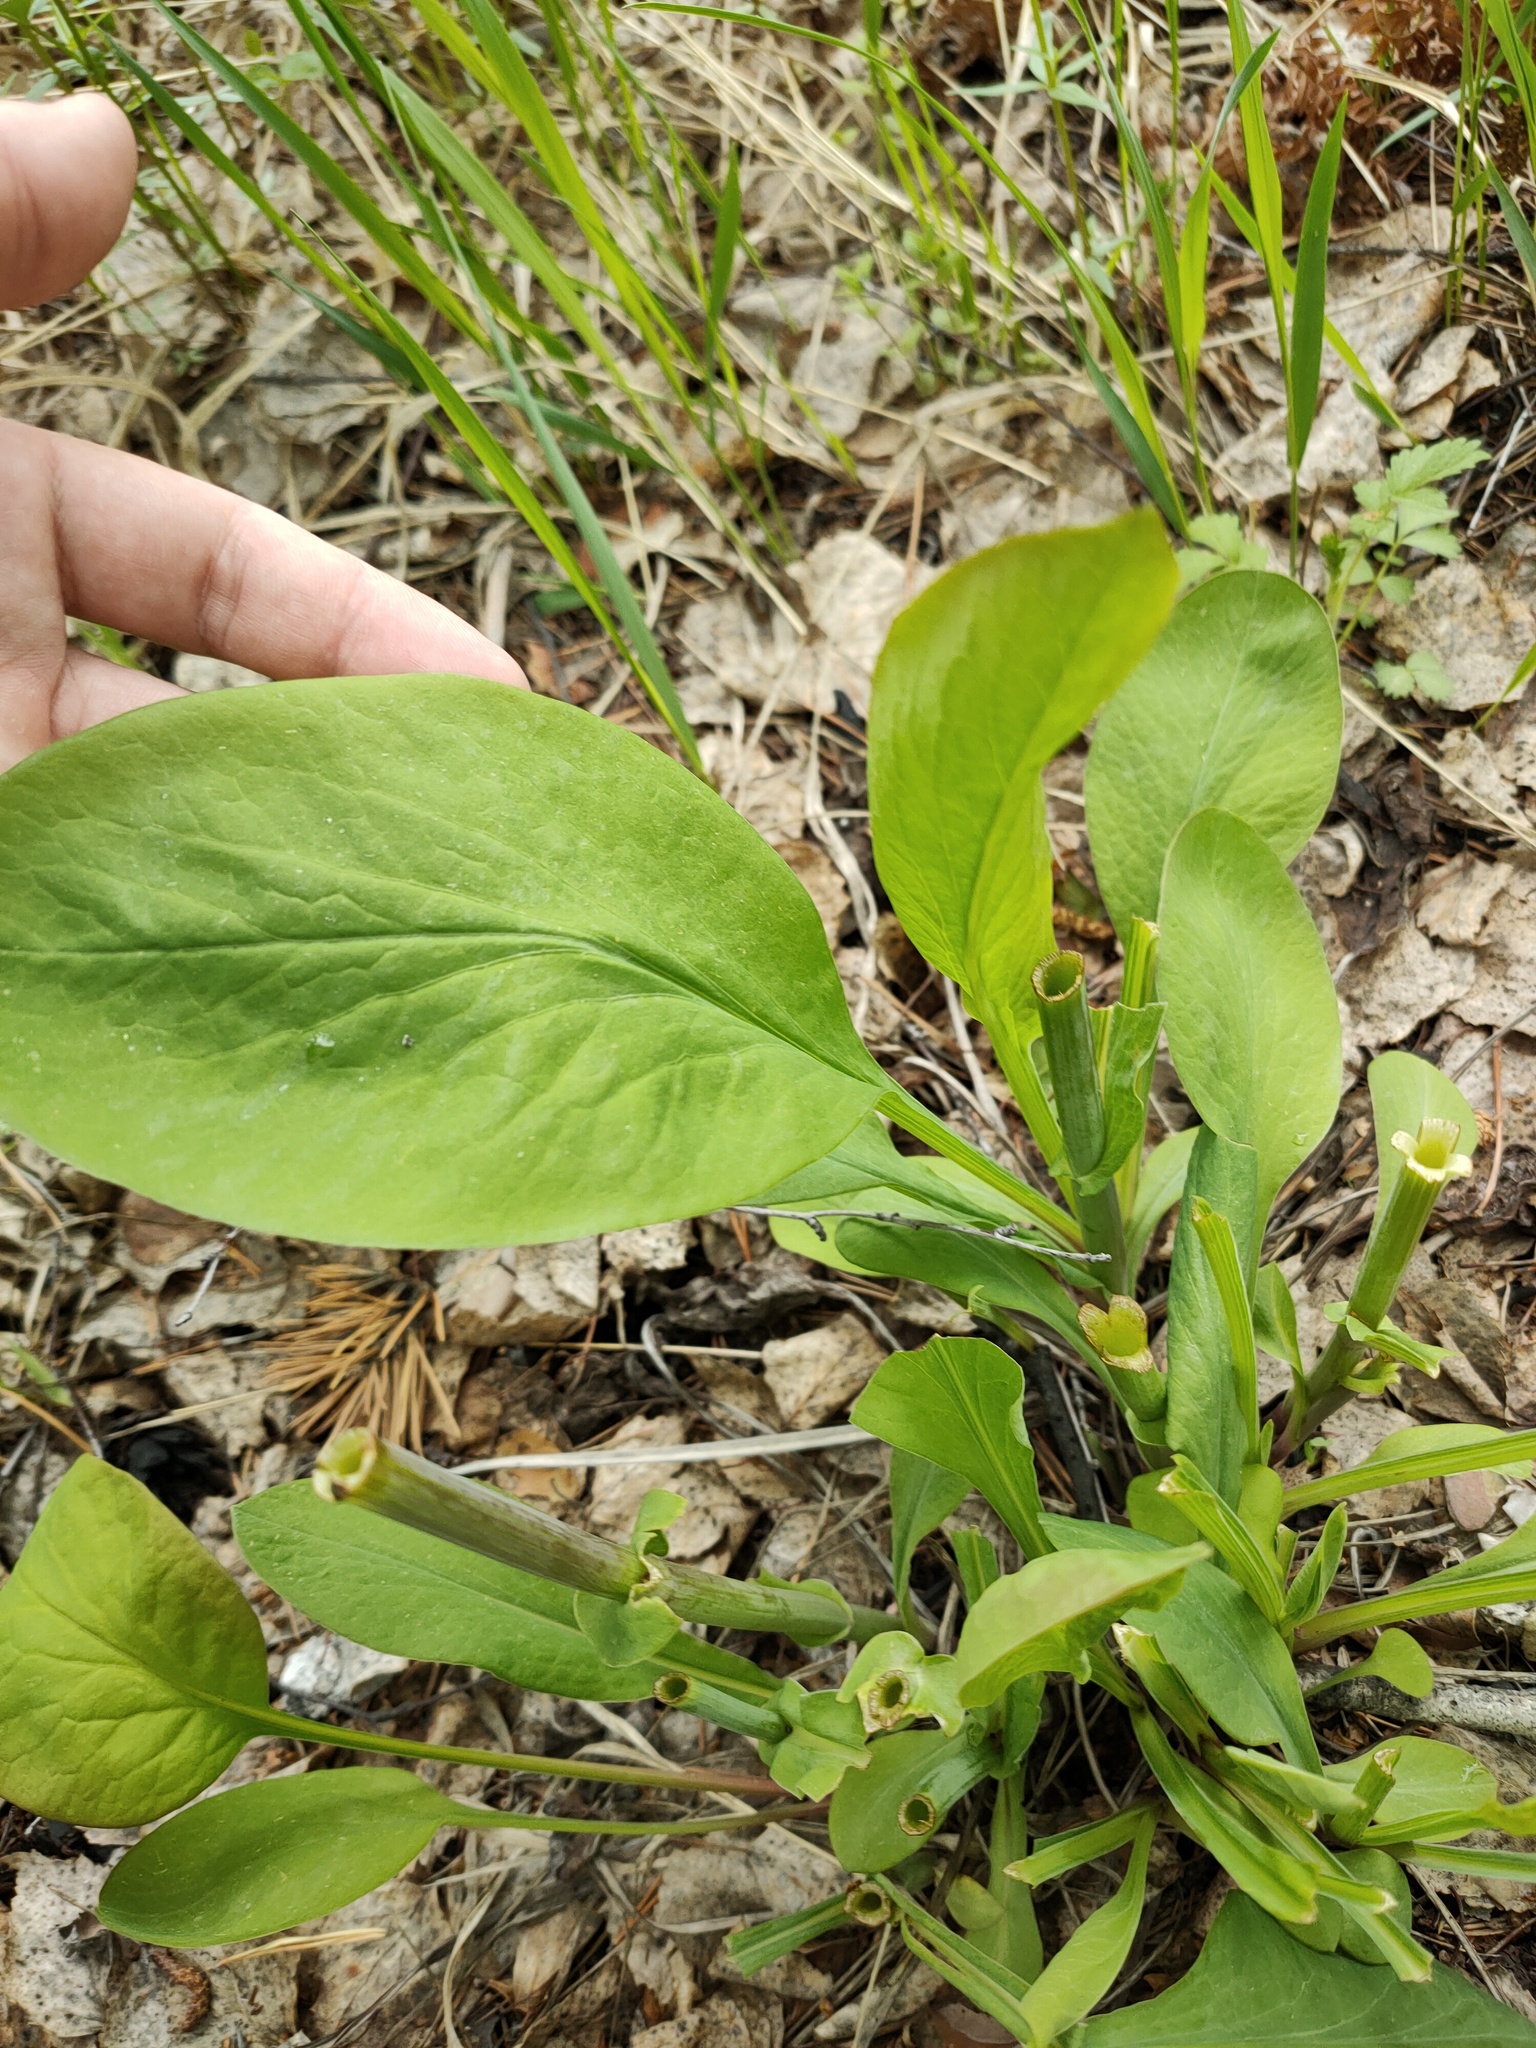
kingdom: Plantae
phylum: Tracheophyta
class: Magnoliopsida
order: Apiales
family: Apiaceae
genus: Bupleurum
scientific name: Bupleurum aureum
